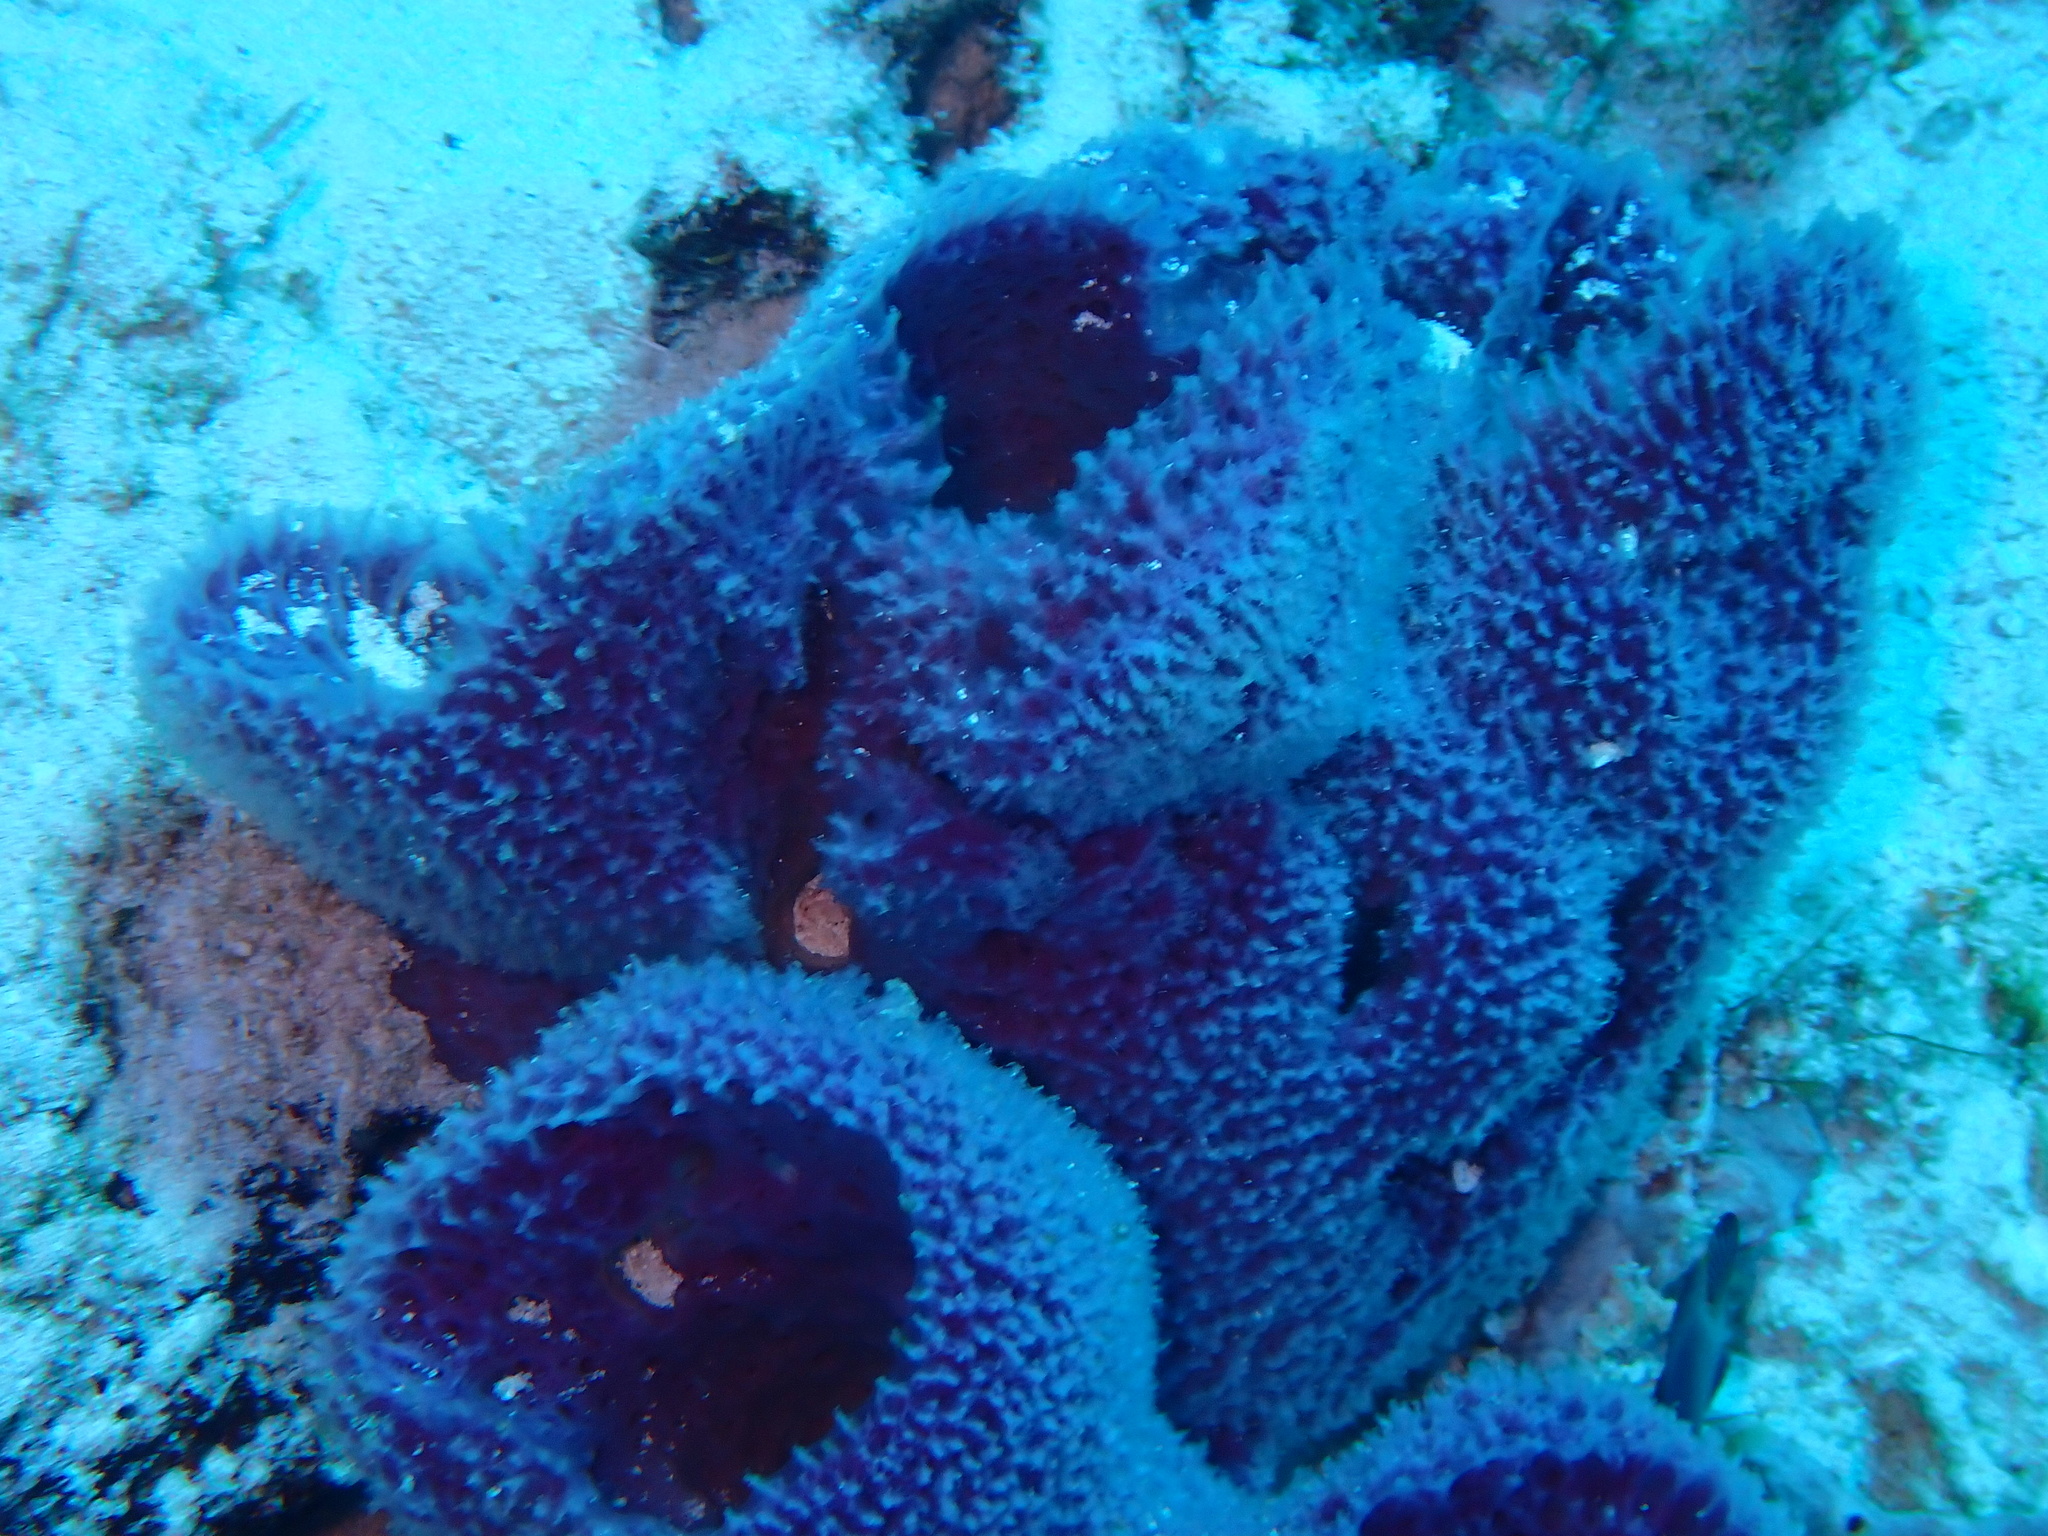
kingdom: Animalia
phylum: Porifera
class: Demospongiae
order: Haplosclerida
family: Niphatidae
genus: Niphates
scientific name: Niphates digitalis
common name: Pink vase sponge
